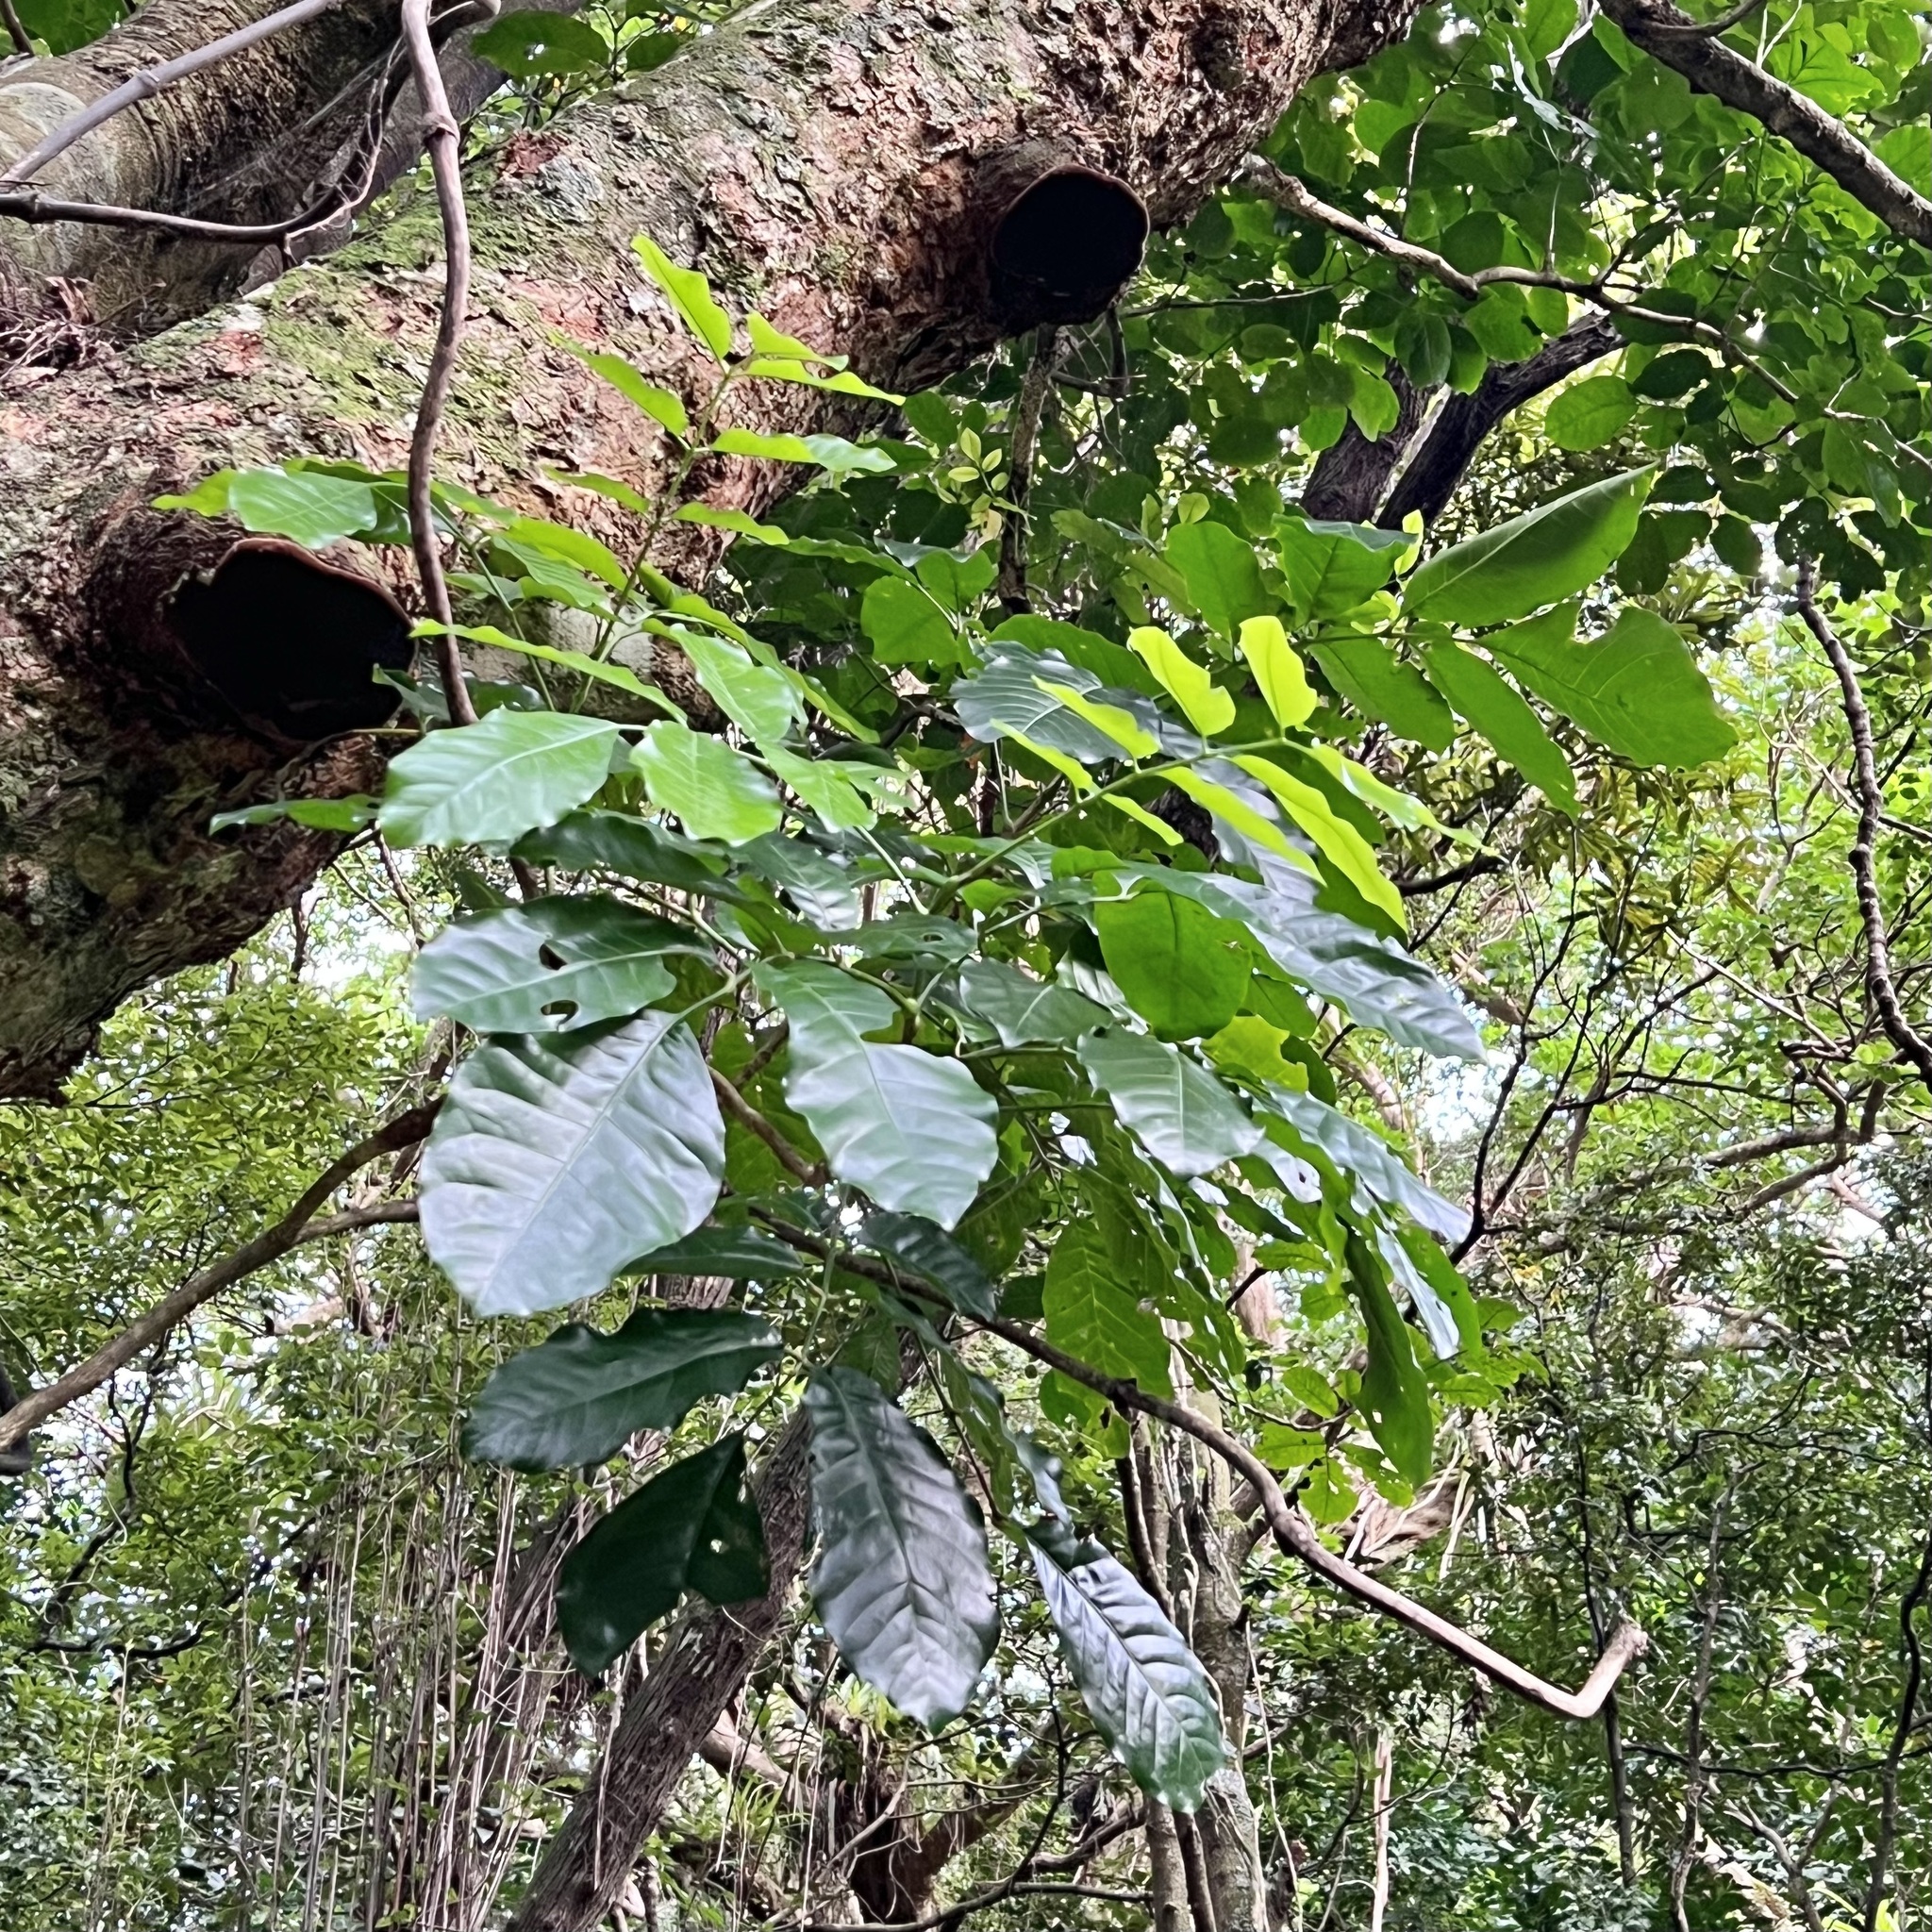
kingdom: Plantae
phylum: Tracheophyta
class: Magnoliopsida
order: Sapindales
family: Meliaceae
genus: Didymocheton
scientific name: Didymocheton spectabilis
